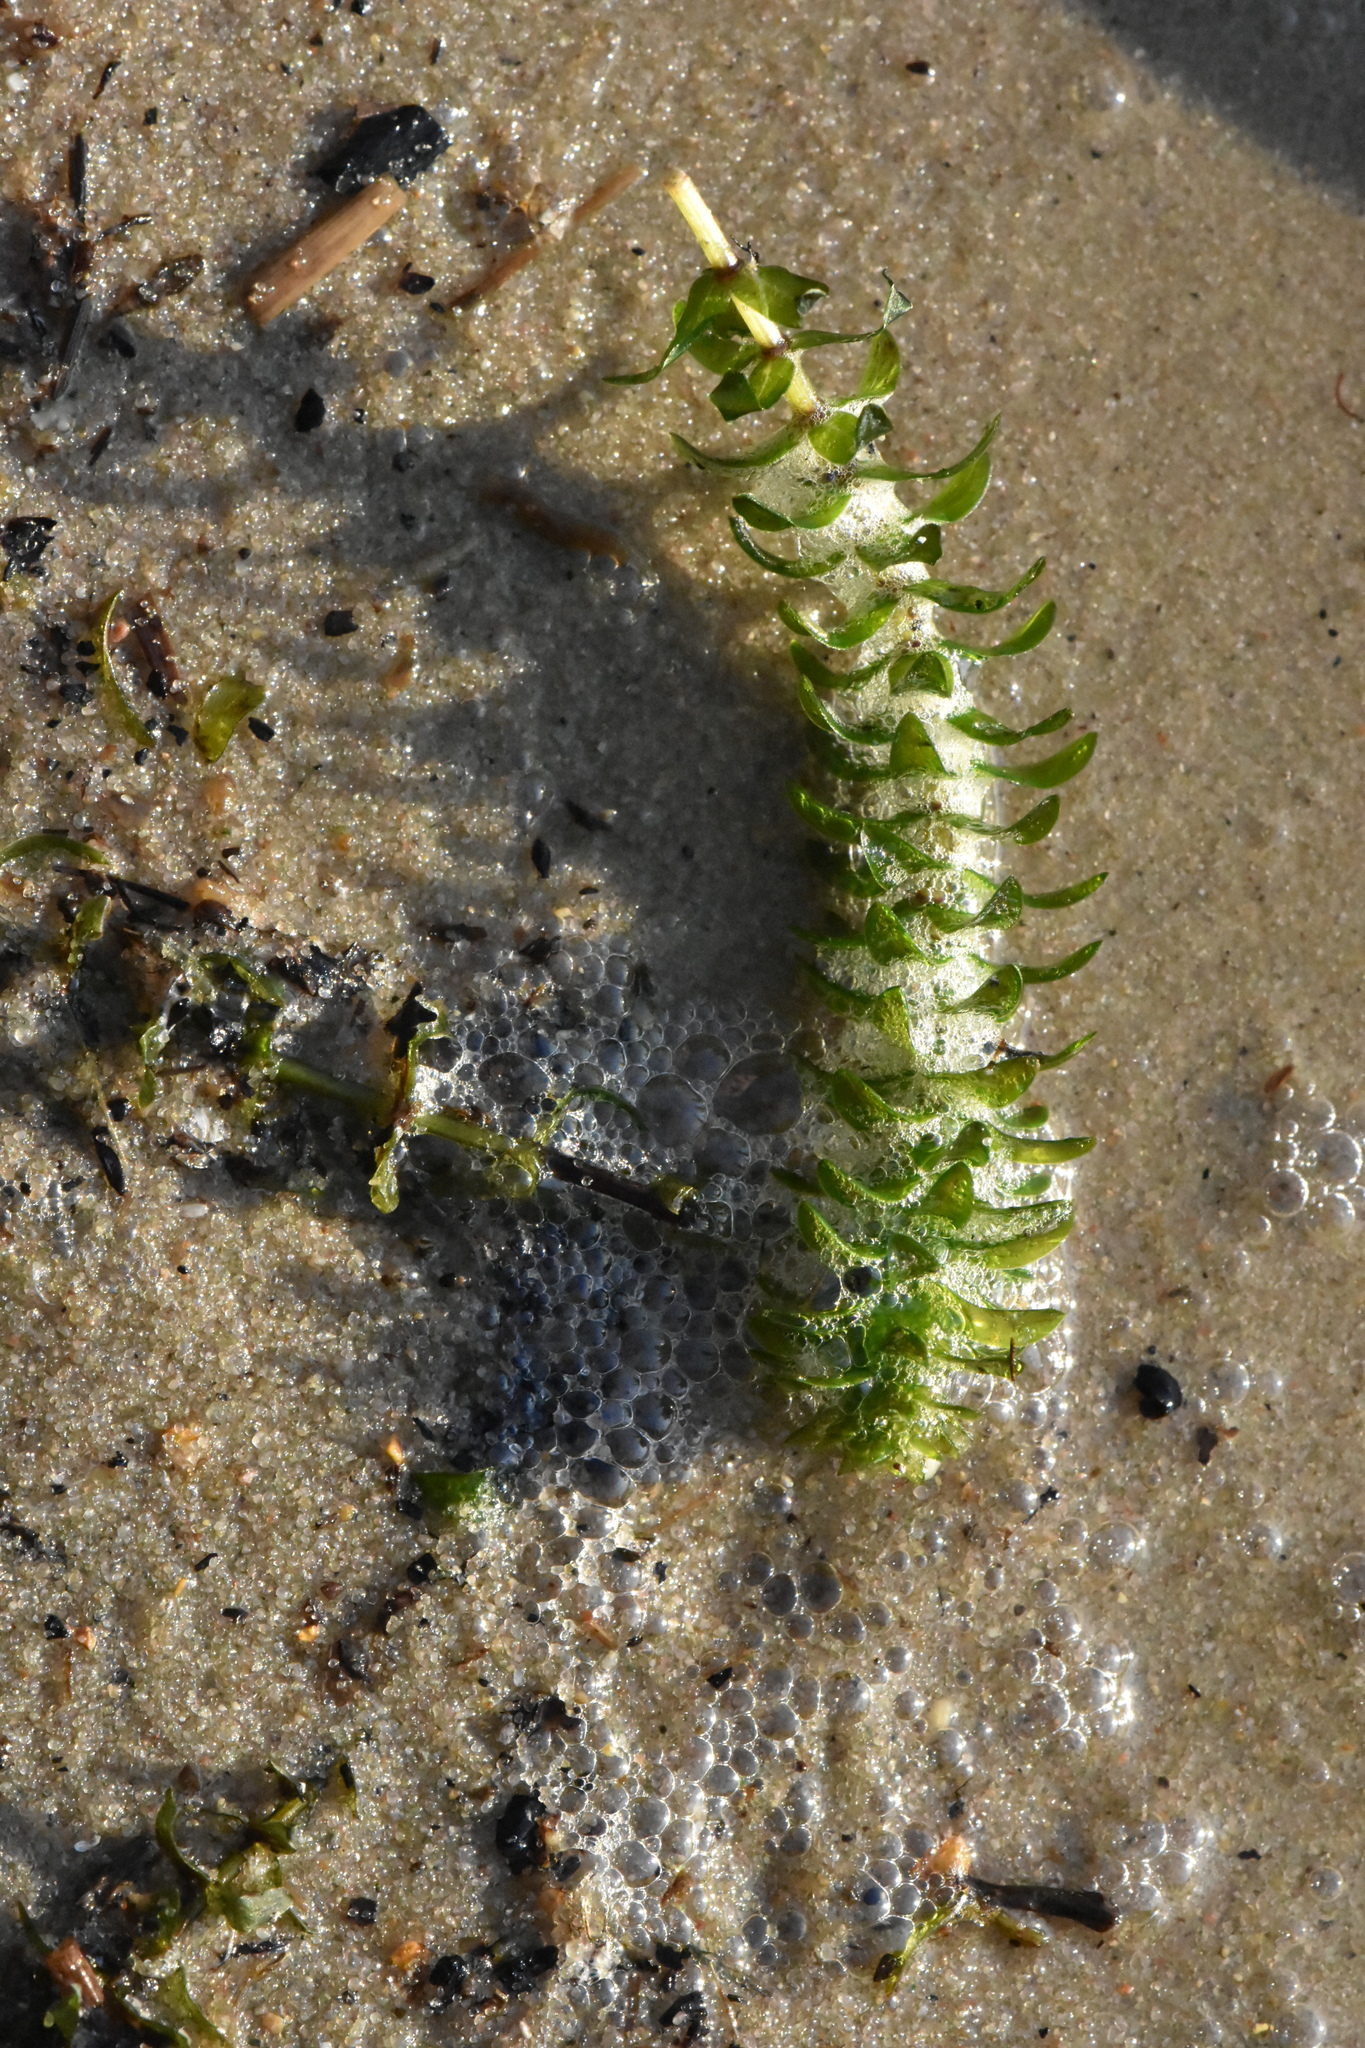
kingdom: Plantae
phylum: Tracheophyta
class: Liliopsida
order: Alismatales
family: Hydrocharitaceae
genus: Elodea
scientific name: Elodea canadensis
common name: Canadian waterweed
